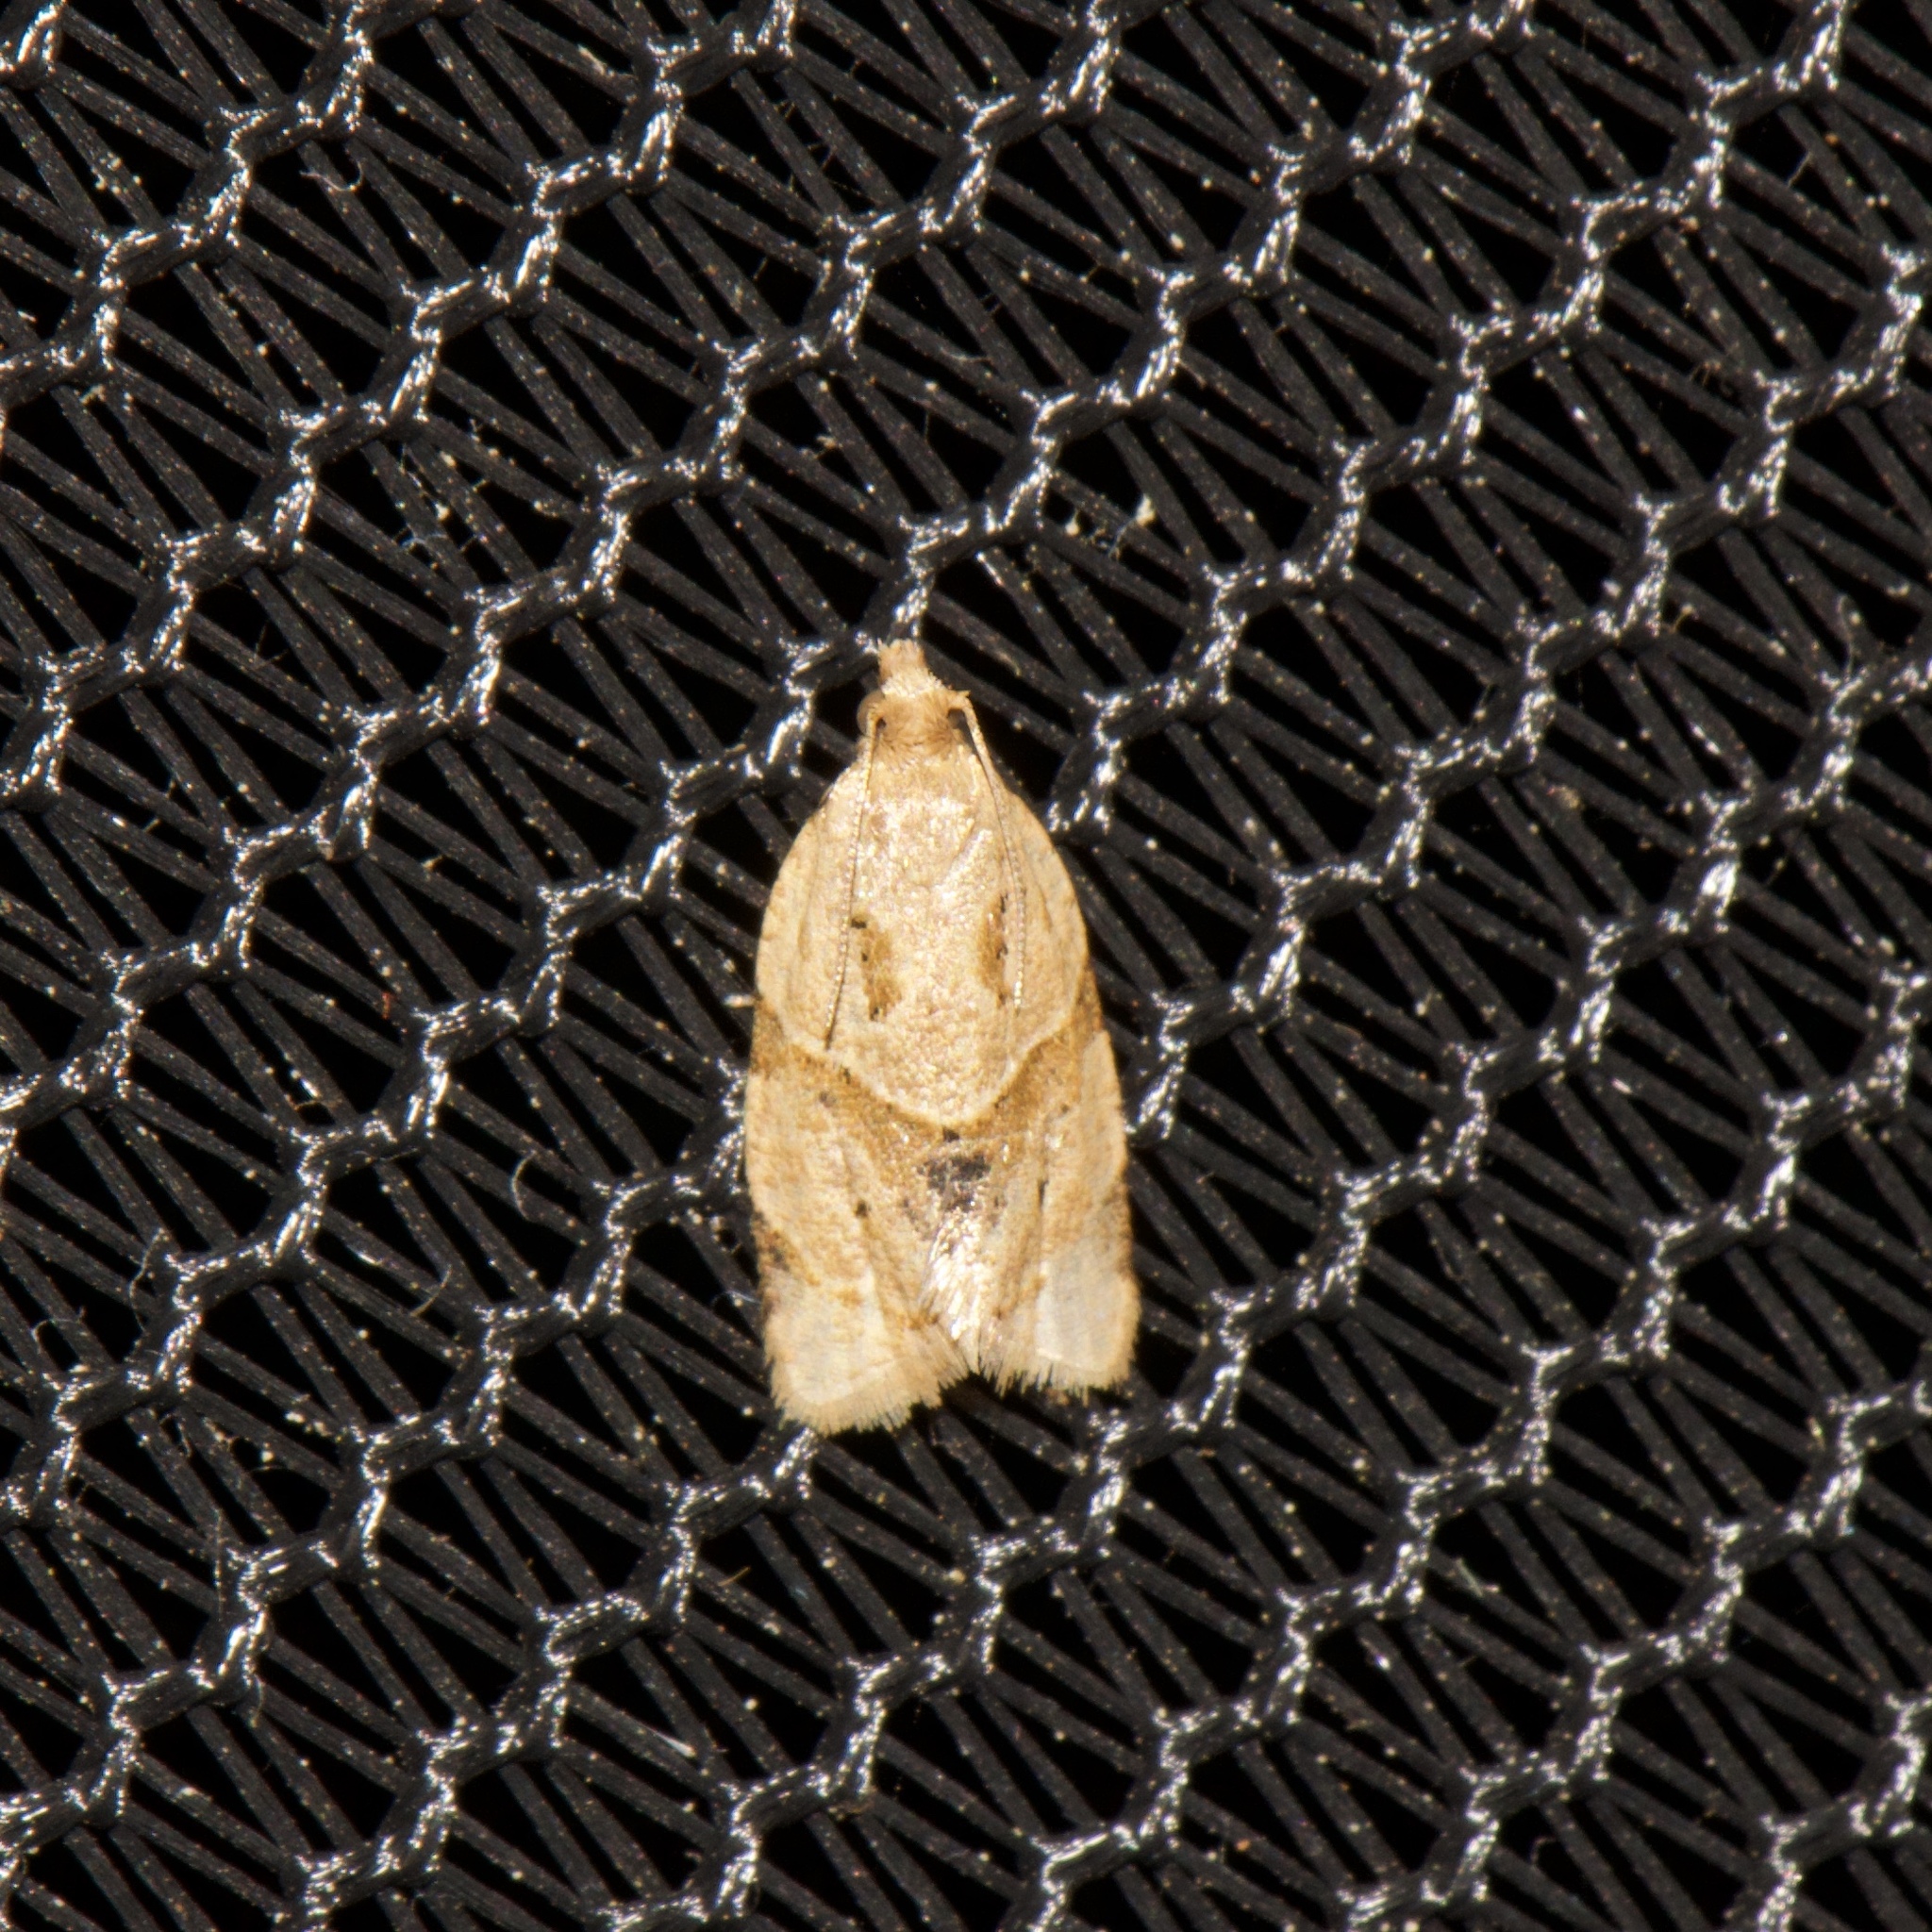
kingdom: Animalia
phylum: Arthropoda
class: Insecta
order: Lepidoptera
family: Tortricidae
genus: Clepsis
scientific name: Clepsis peritana
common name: Garden tortrix
